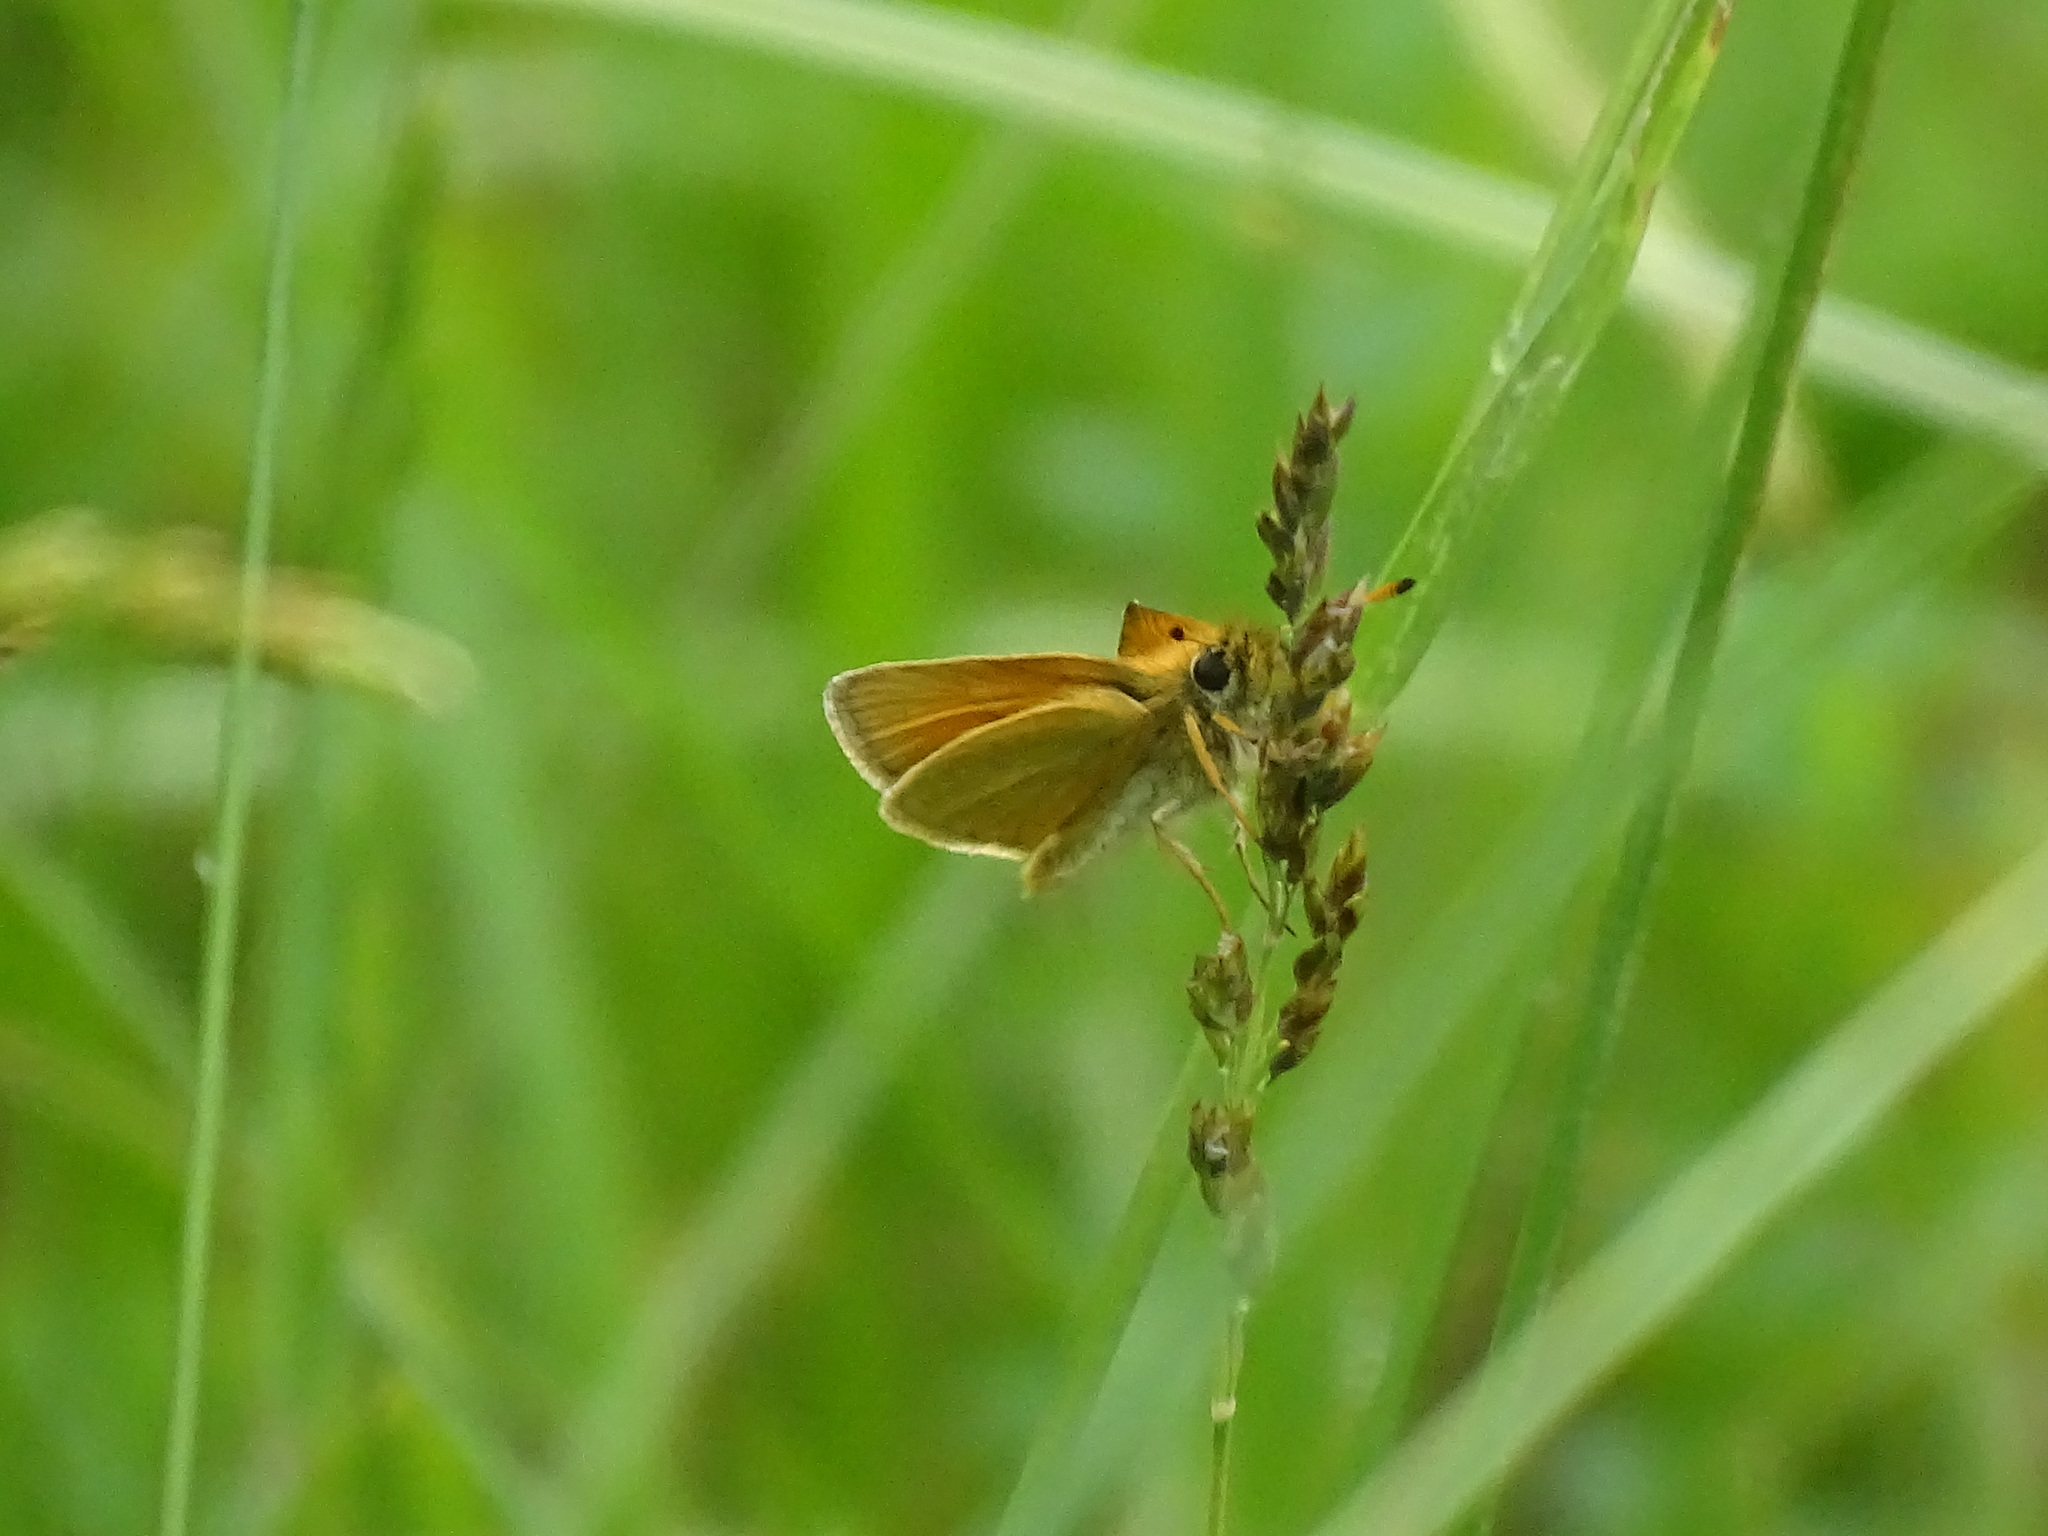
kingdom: Animalia
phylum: Arthropoda
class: Insecta
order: Lepidoptera
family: Hesperiidae
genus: Thymelicus
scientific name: Thymelicus lineola
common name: Essex skipper
